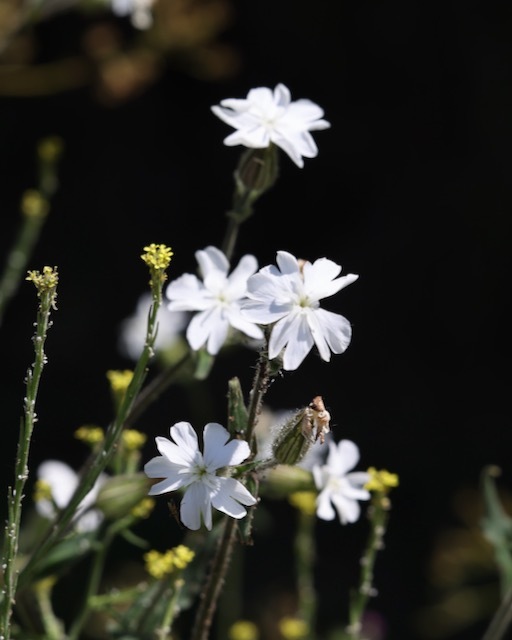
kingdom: Plantae
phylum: Tracheophyta
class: Magnoliopsida
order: Caryophyllales
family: Caryophyllaceae
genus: Silene
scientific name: Silene latifolia
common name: White campion
